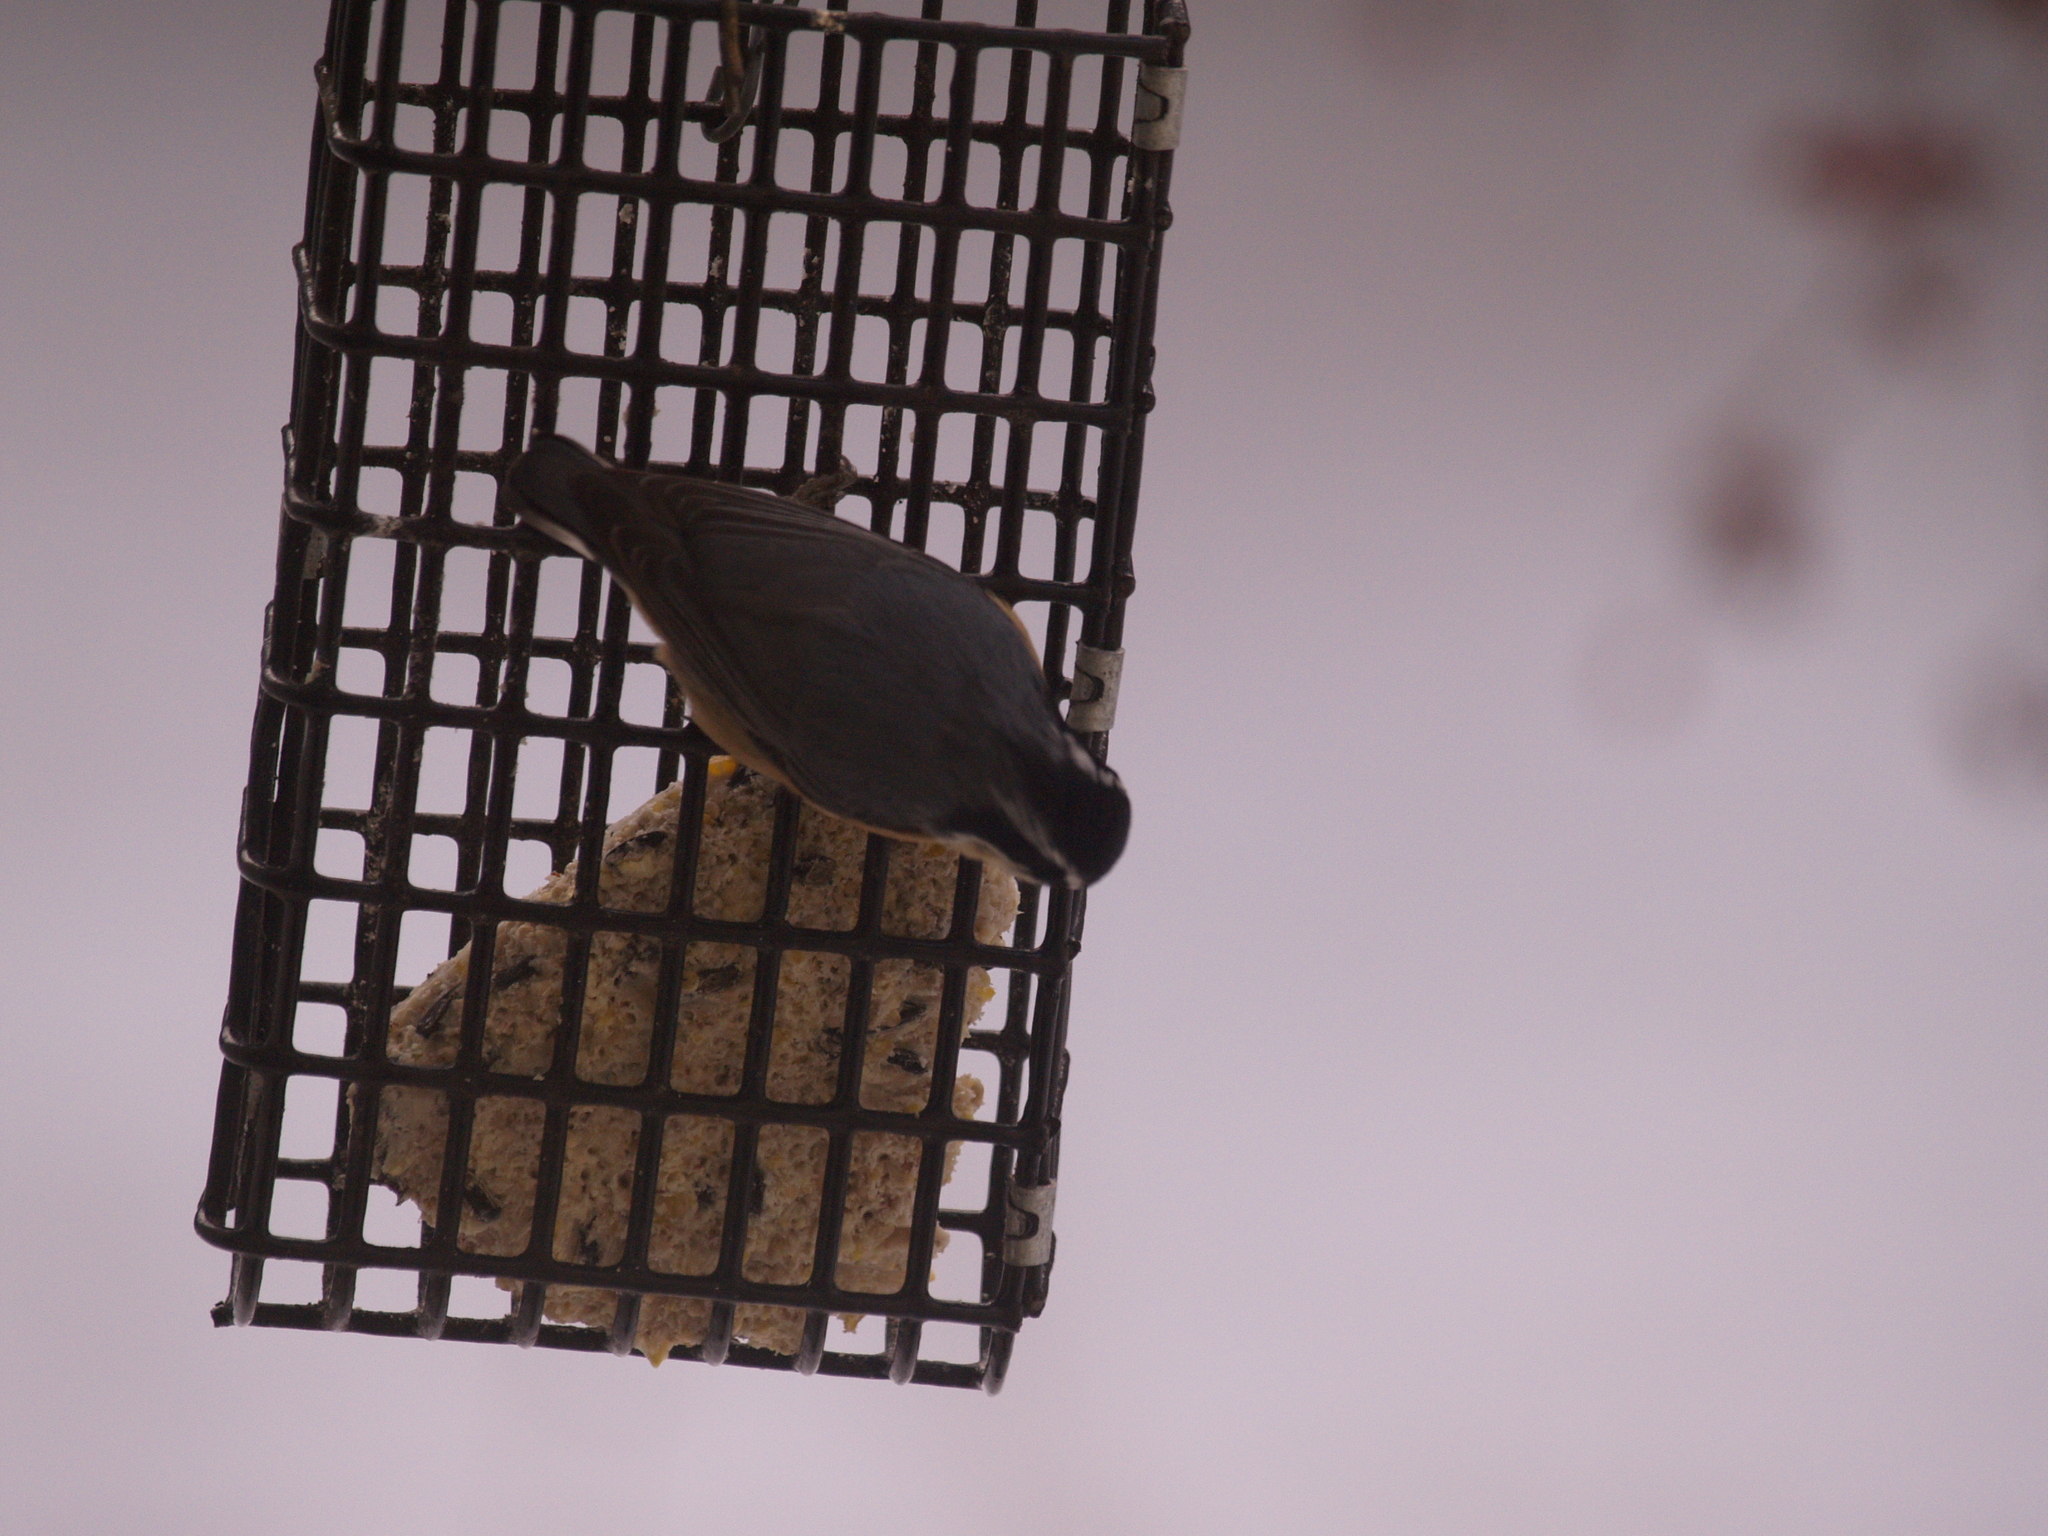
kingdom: Animalia
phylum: Chordata
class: Aves
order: Passeriformes
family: Sittidae
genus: Sitta
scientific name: Sitta canadensis
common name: Red-breasted nuthatch
